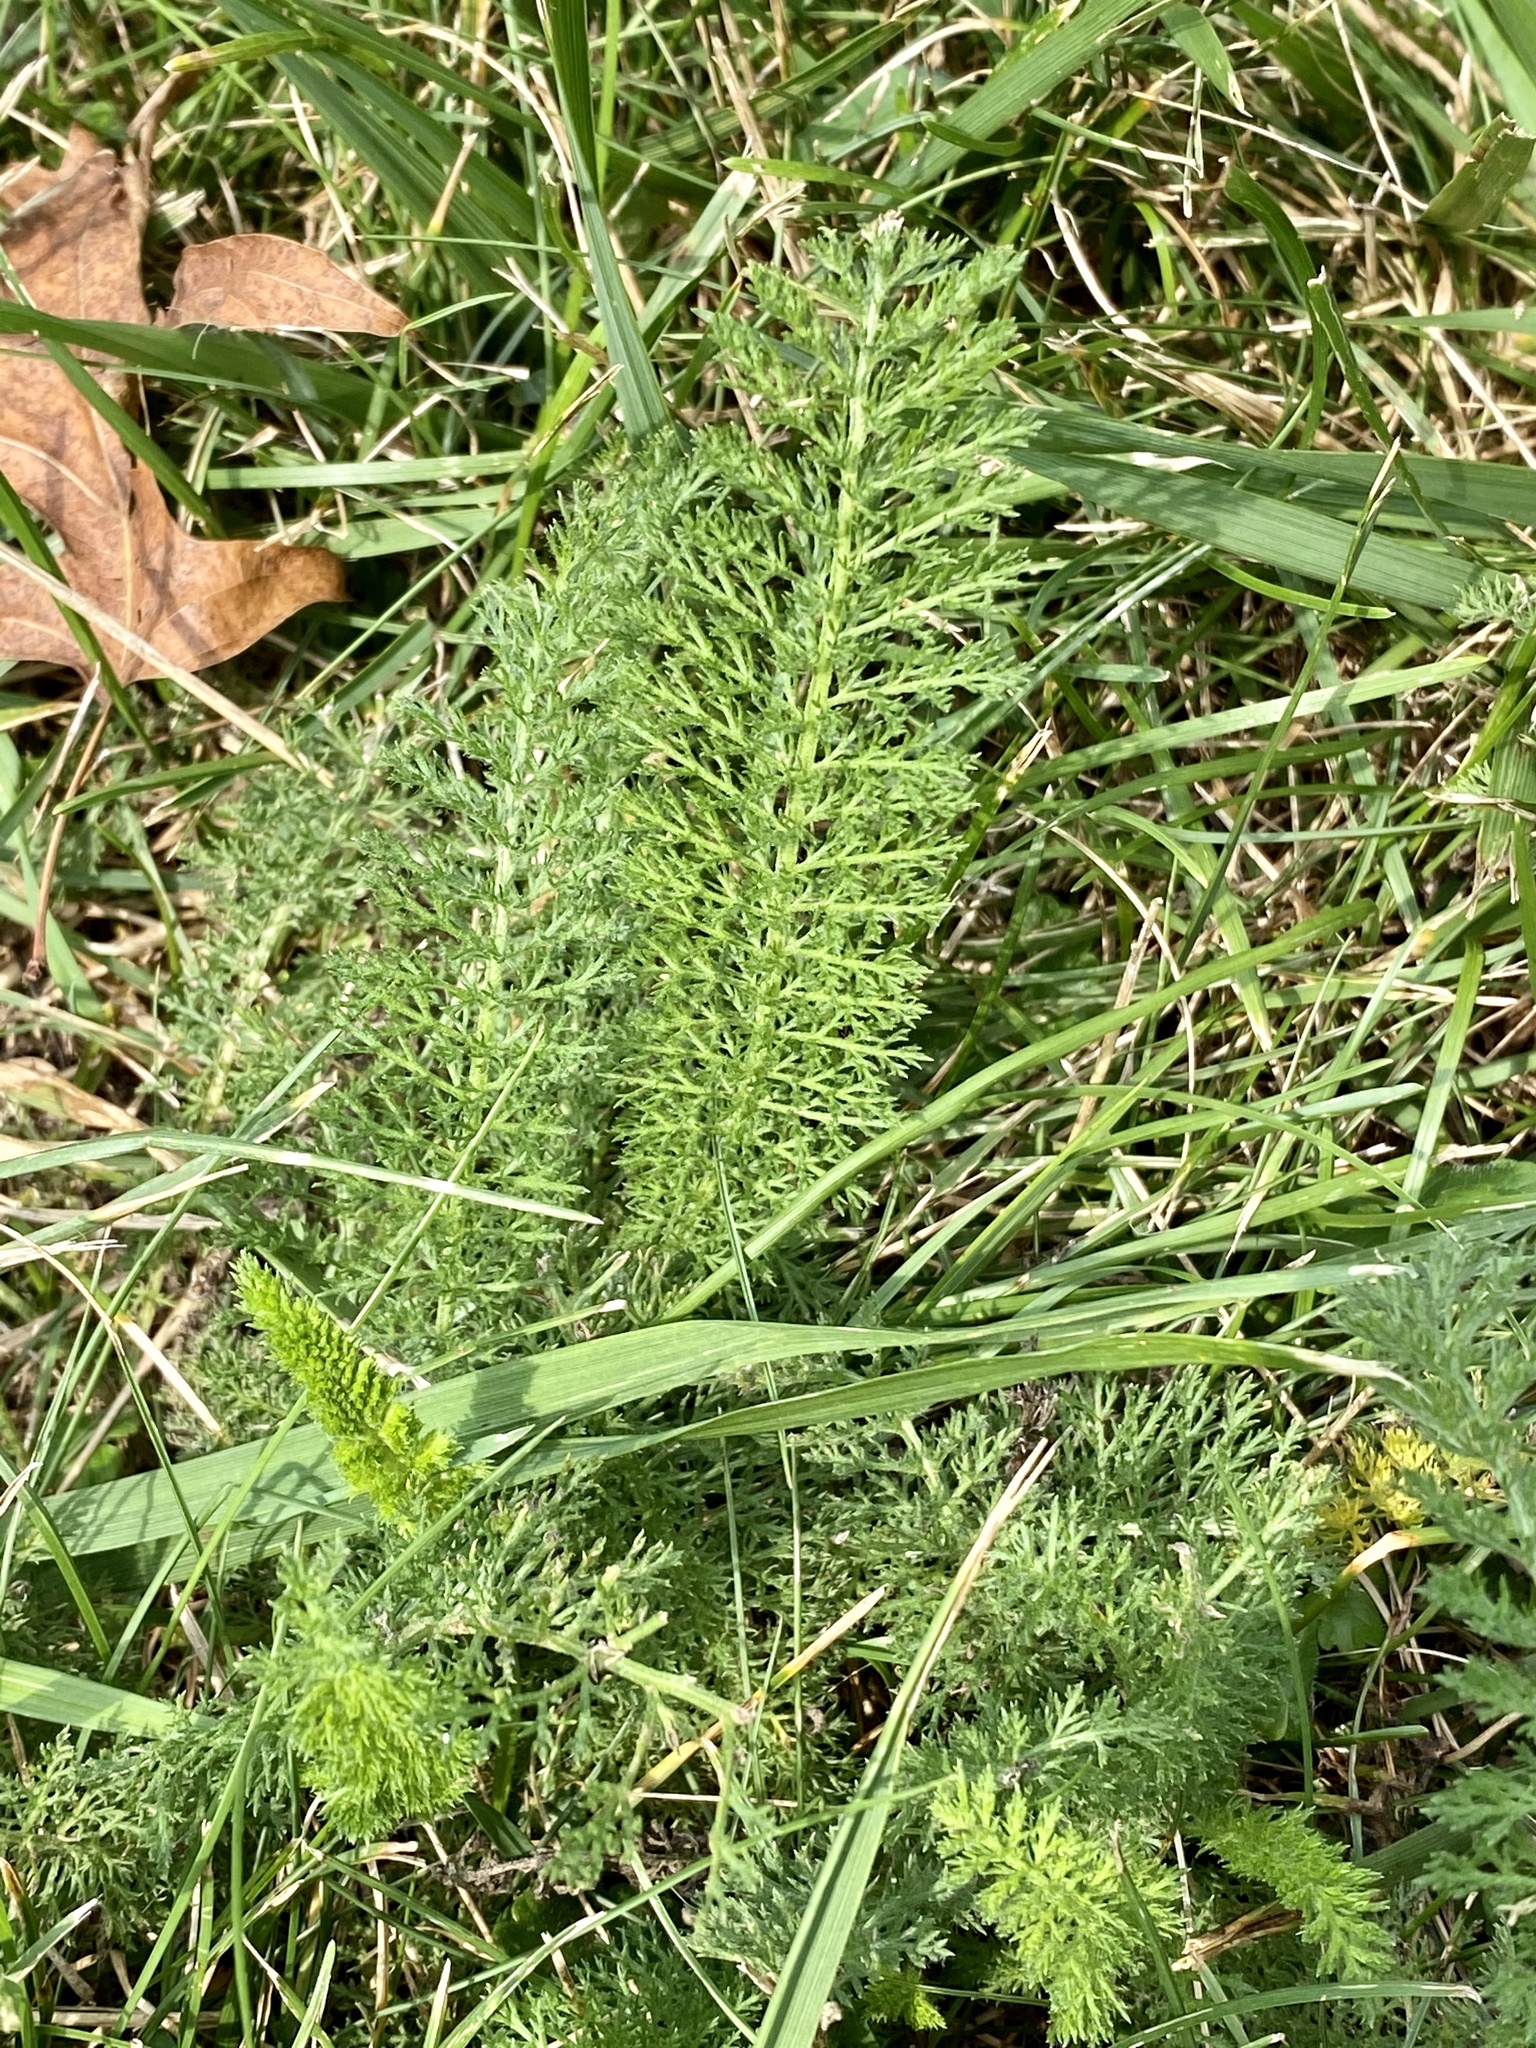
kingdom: Plantae
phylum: Tracheophyta
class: Magnoliopsida
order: Asterales
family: Asteraceae
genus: Achillea
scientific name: Achillea millefolium
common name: Yarrow
